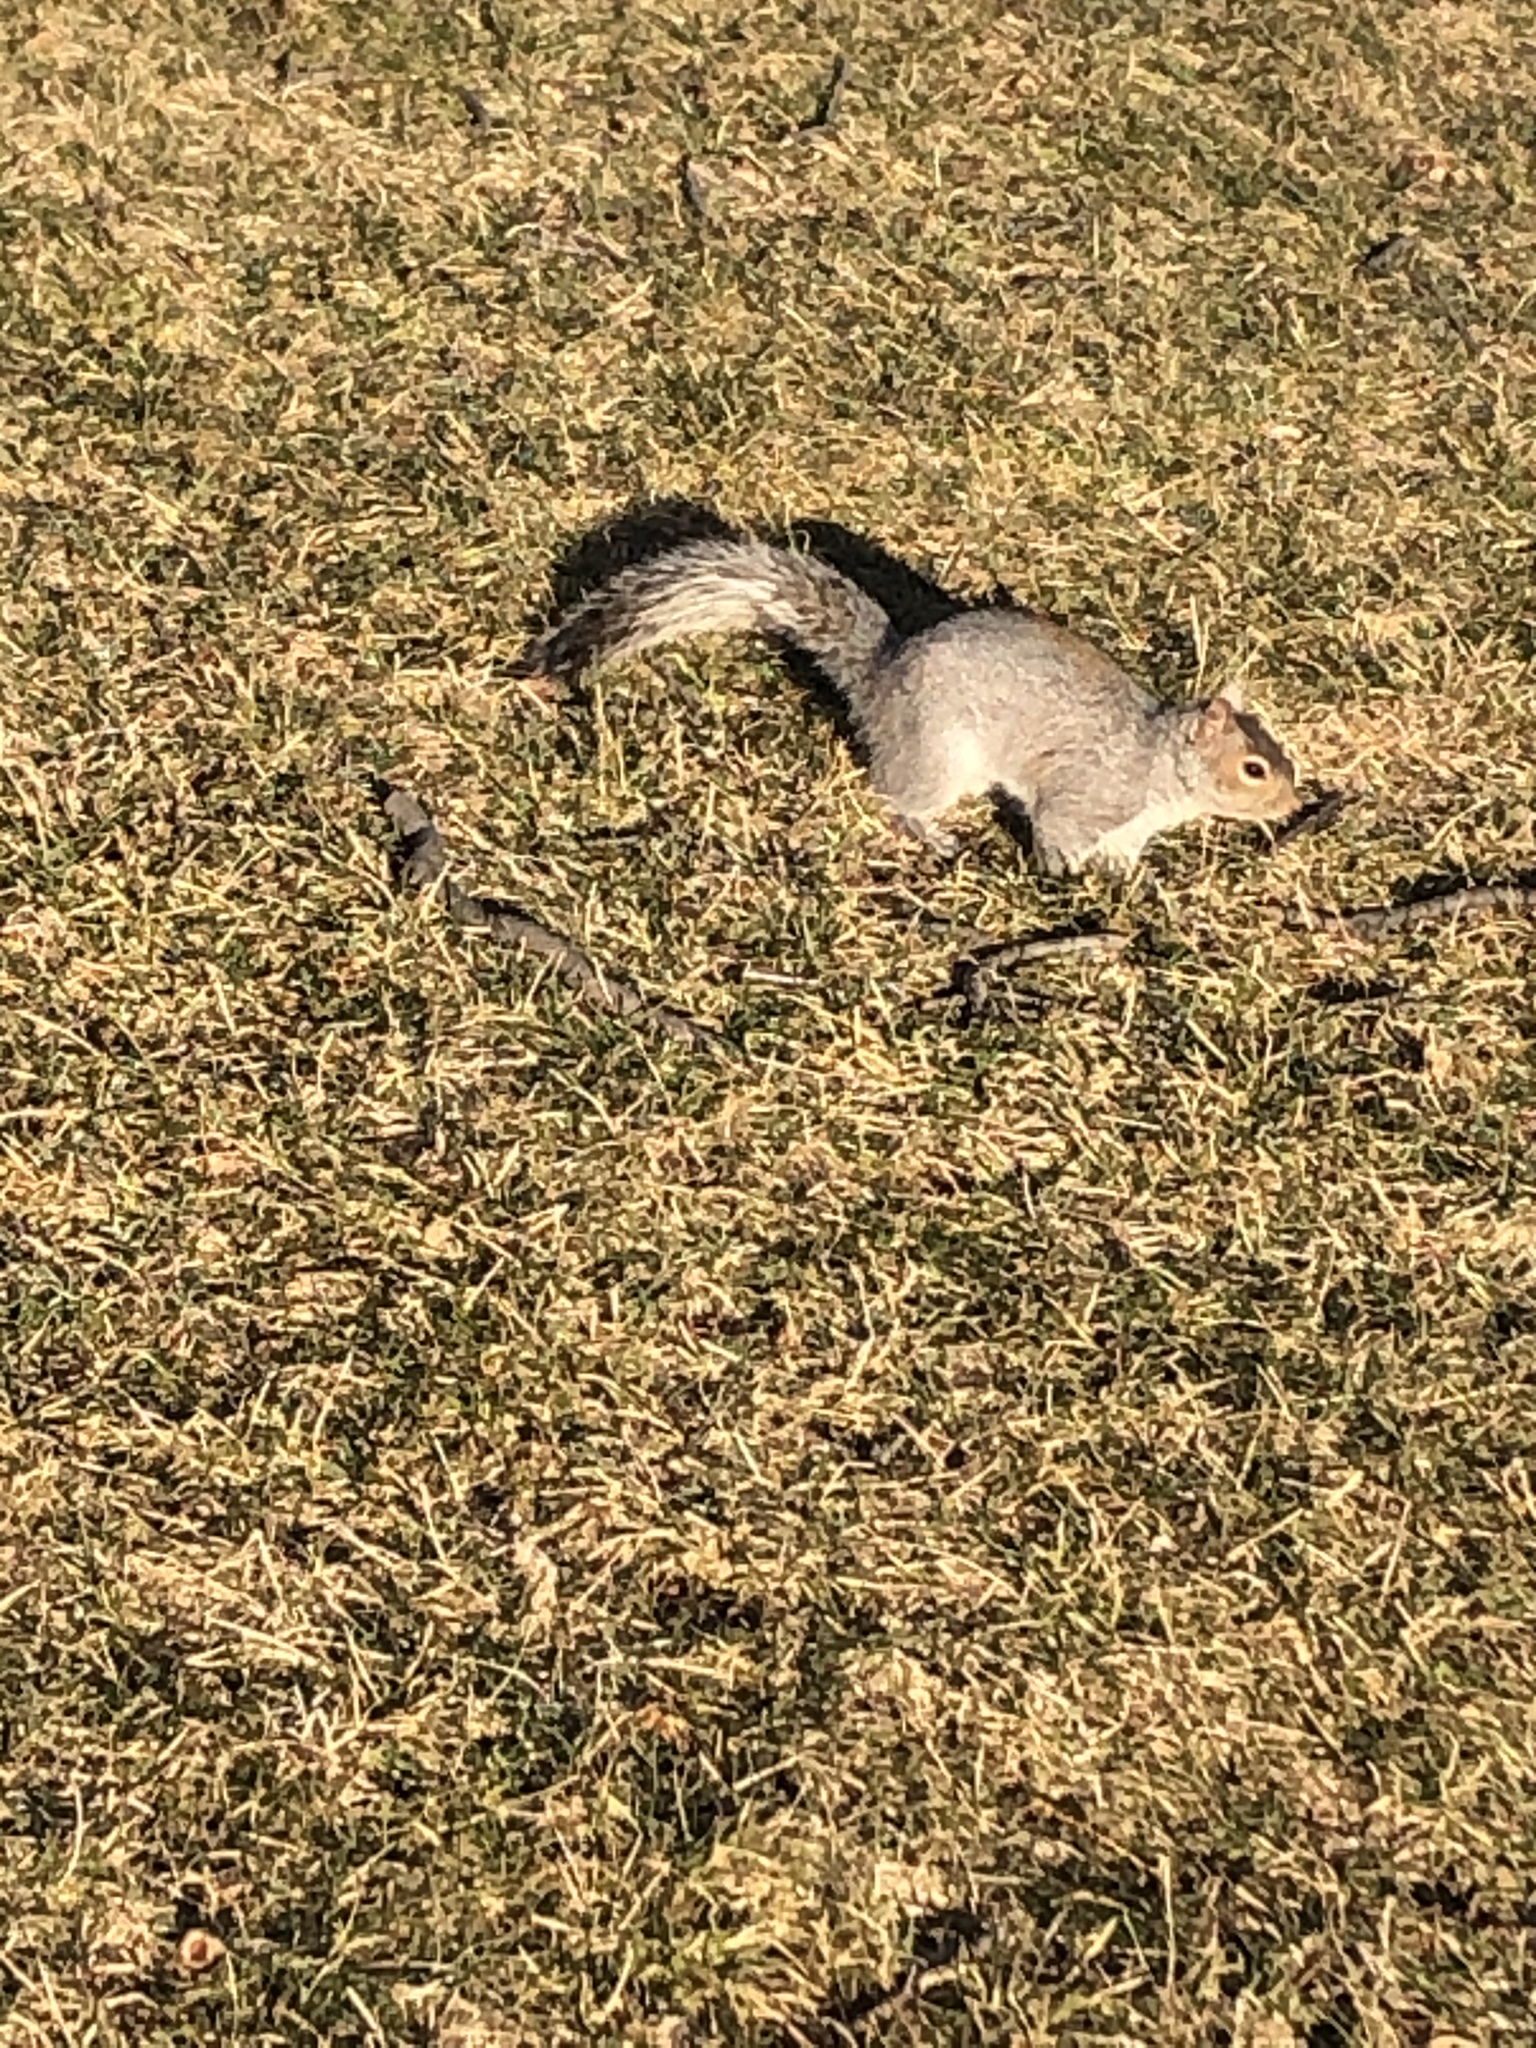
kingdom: Animalia
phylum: Chordata
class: Mammalia
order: Rodentia
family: Sciuridae
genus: Sciurus
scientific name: Sciurus carolinensis
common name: Eastern gray squirrel
